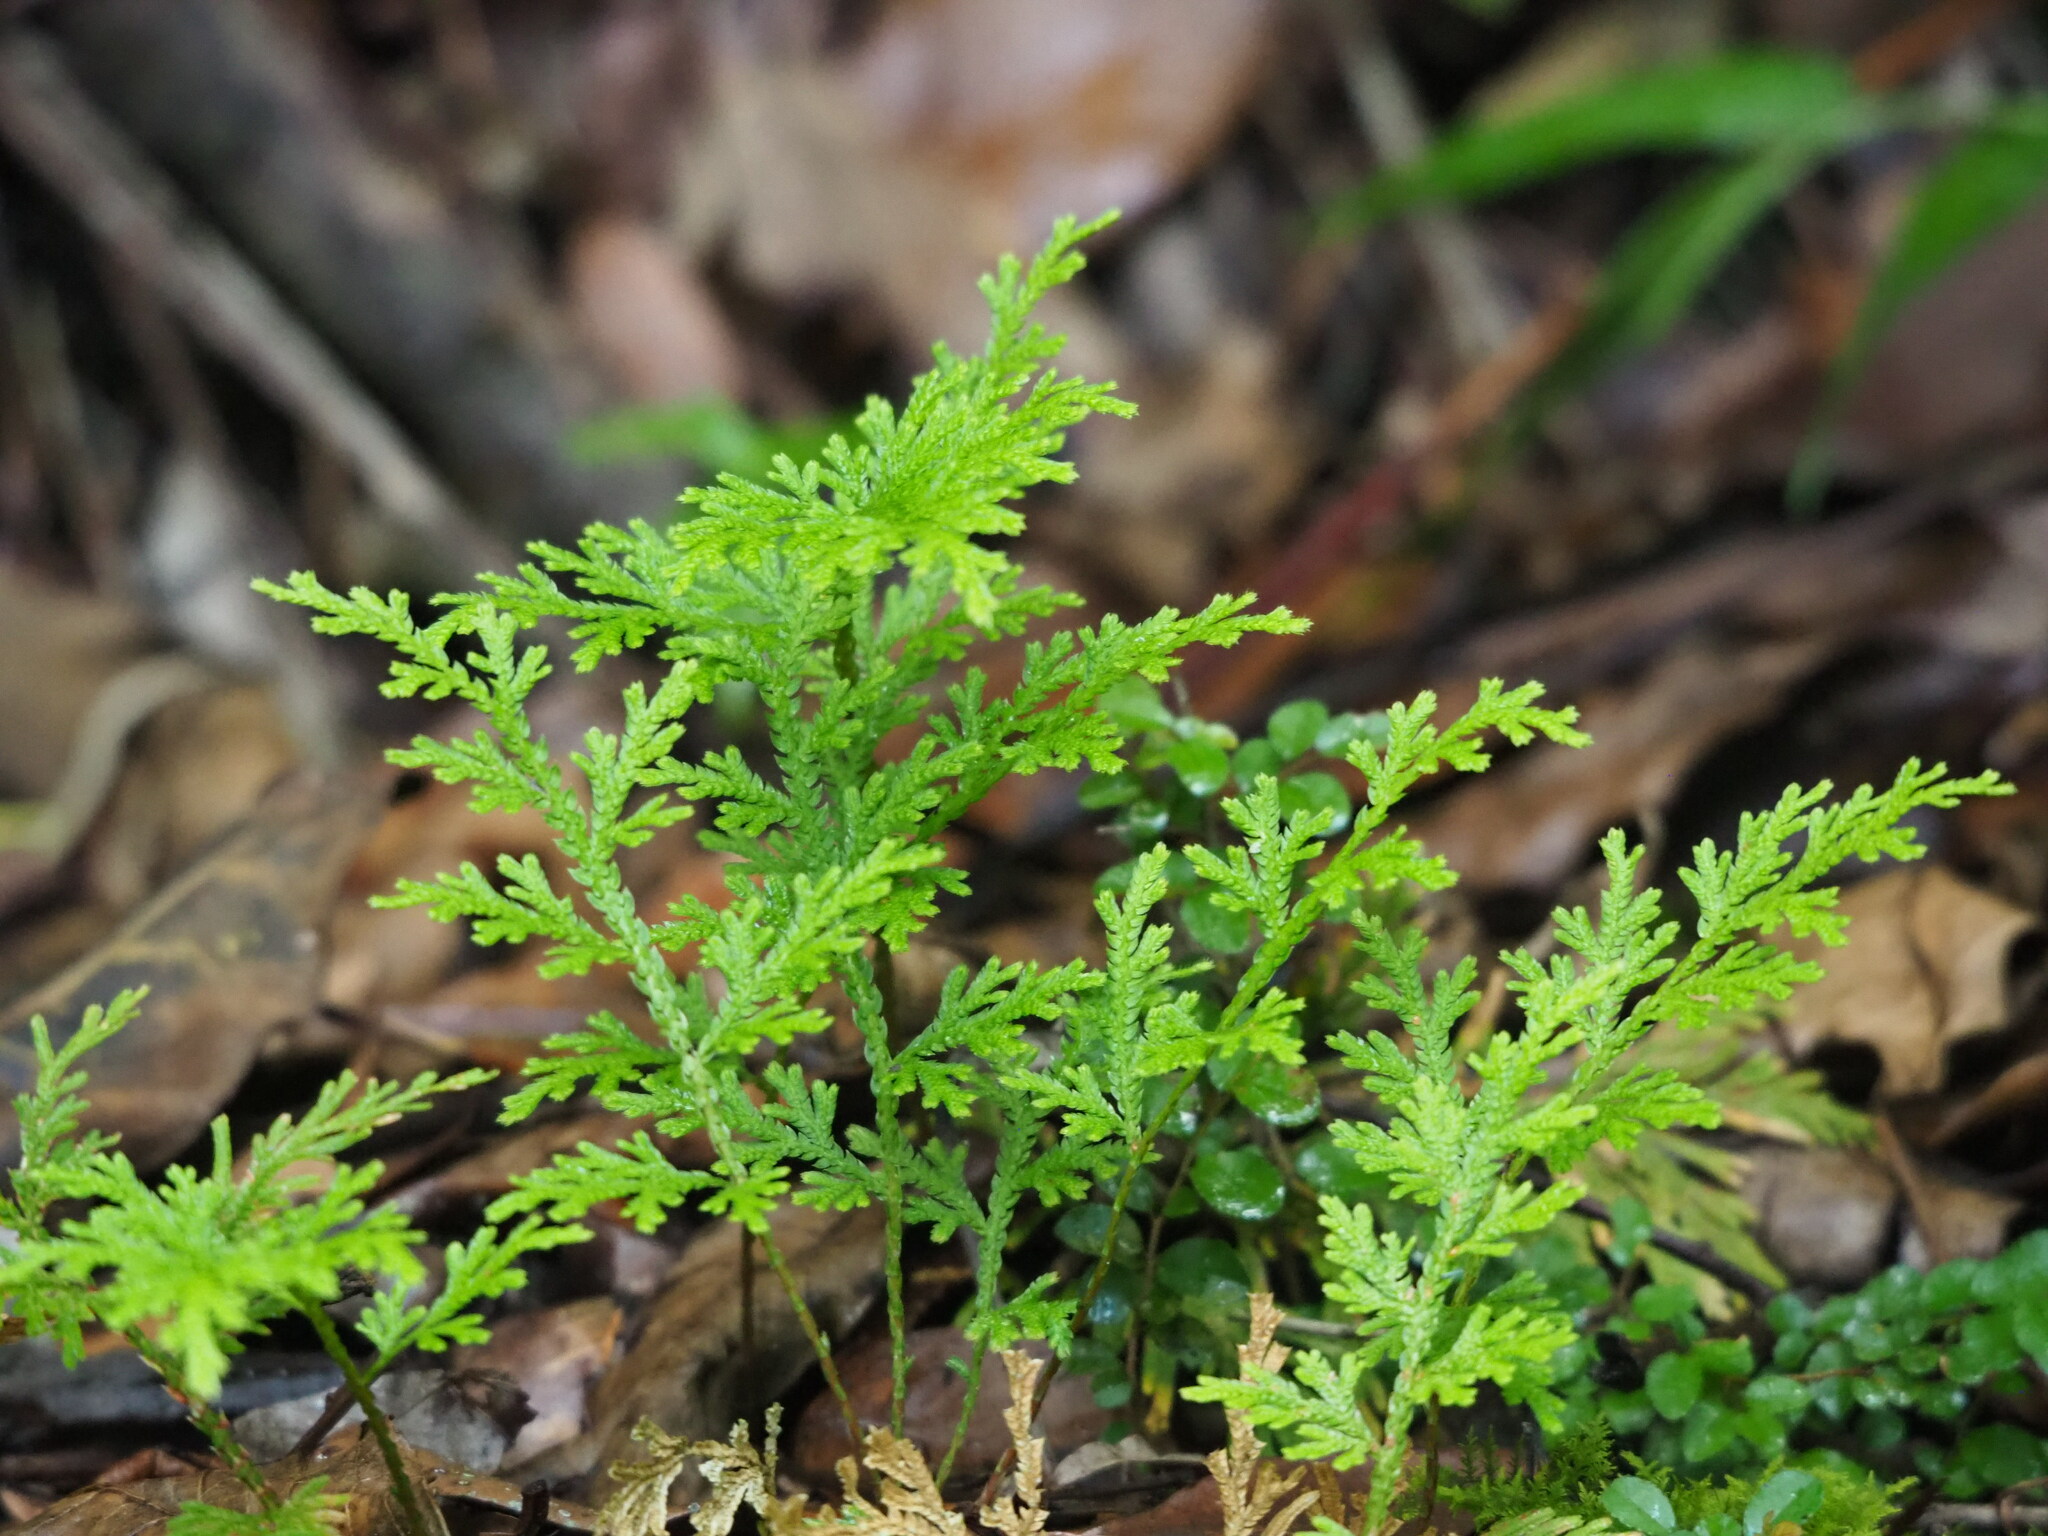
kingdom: Plantae
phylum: Tracheophyta
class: Lycopodiopsida
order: Selaginellales
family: Selaginellaceae
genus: Selaginella
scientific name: Selaginella moellendorffii
